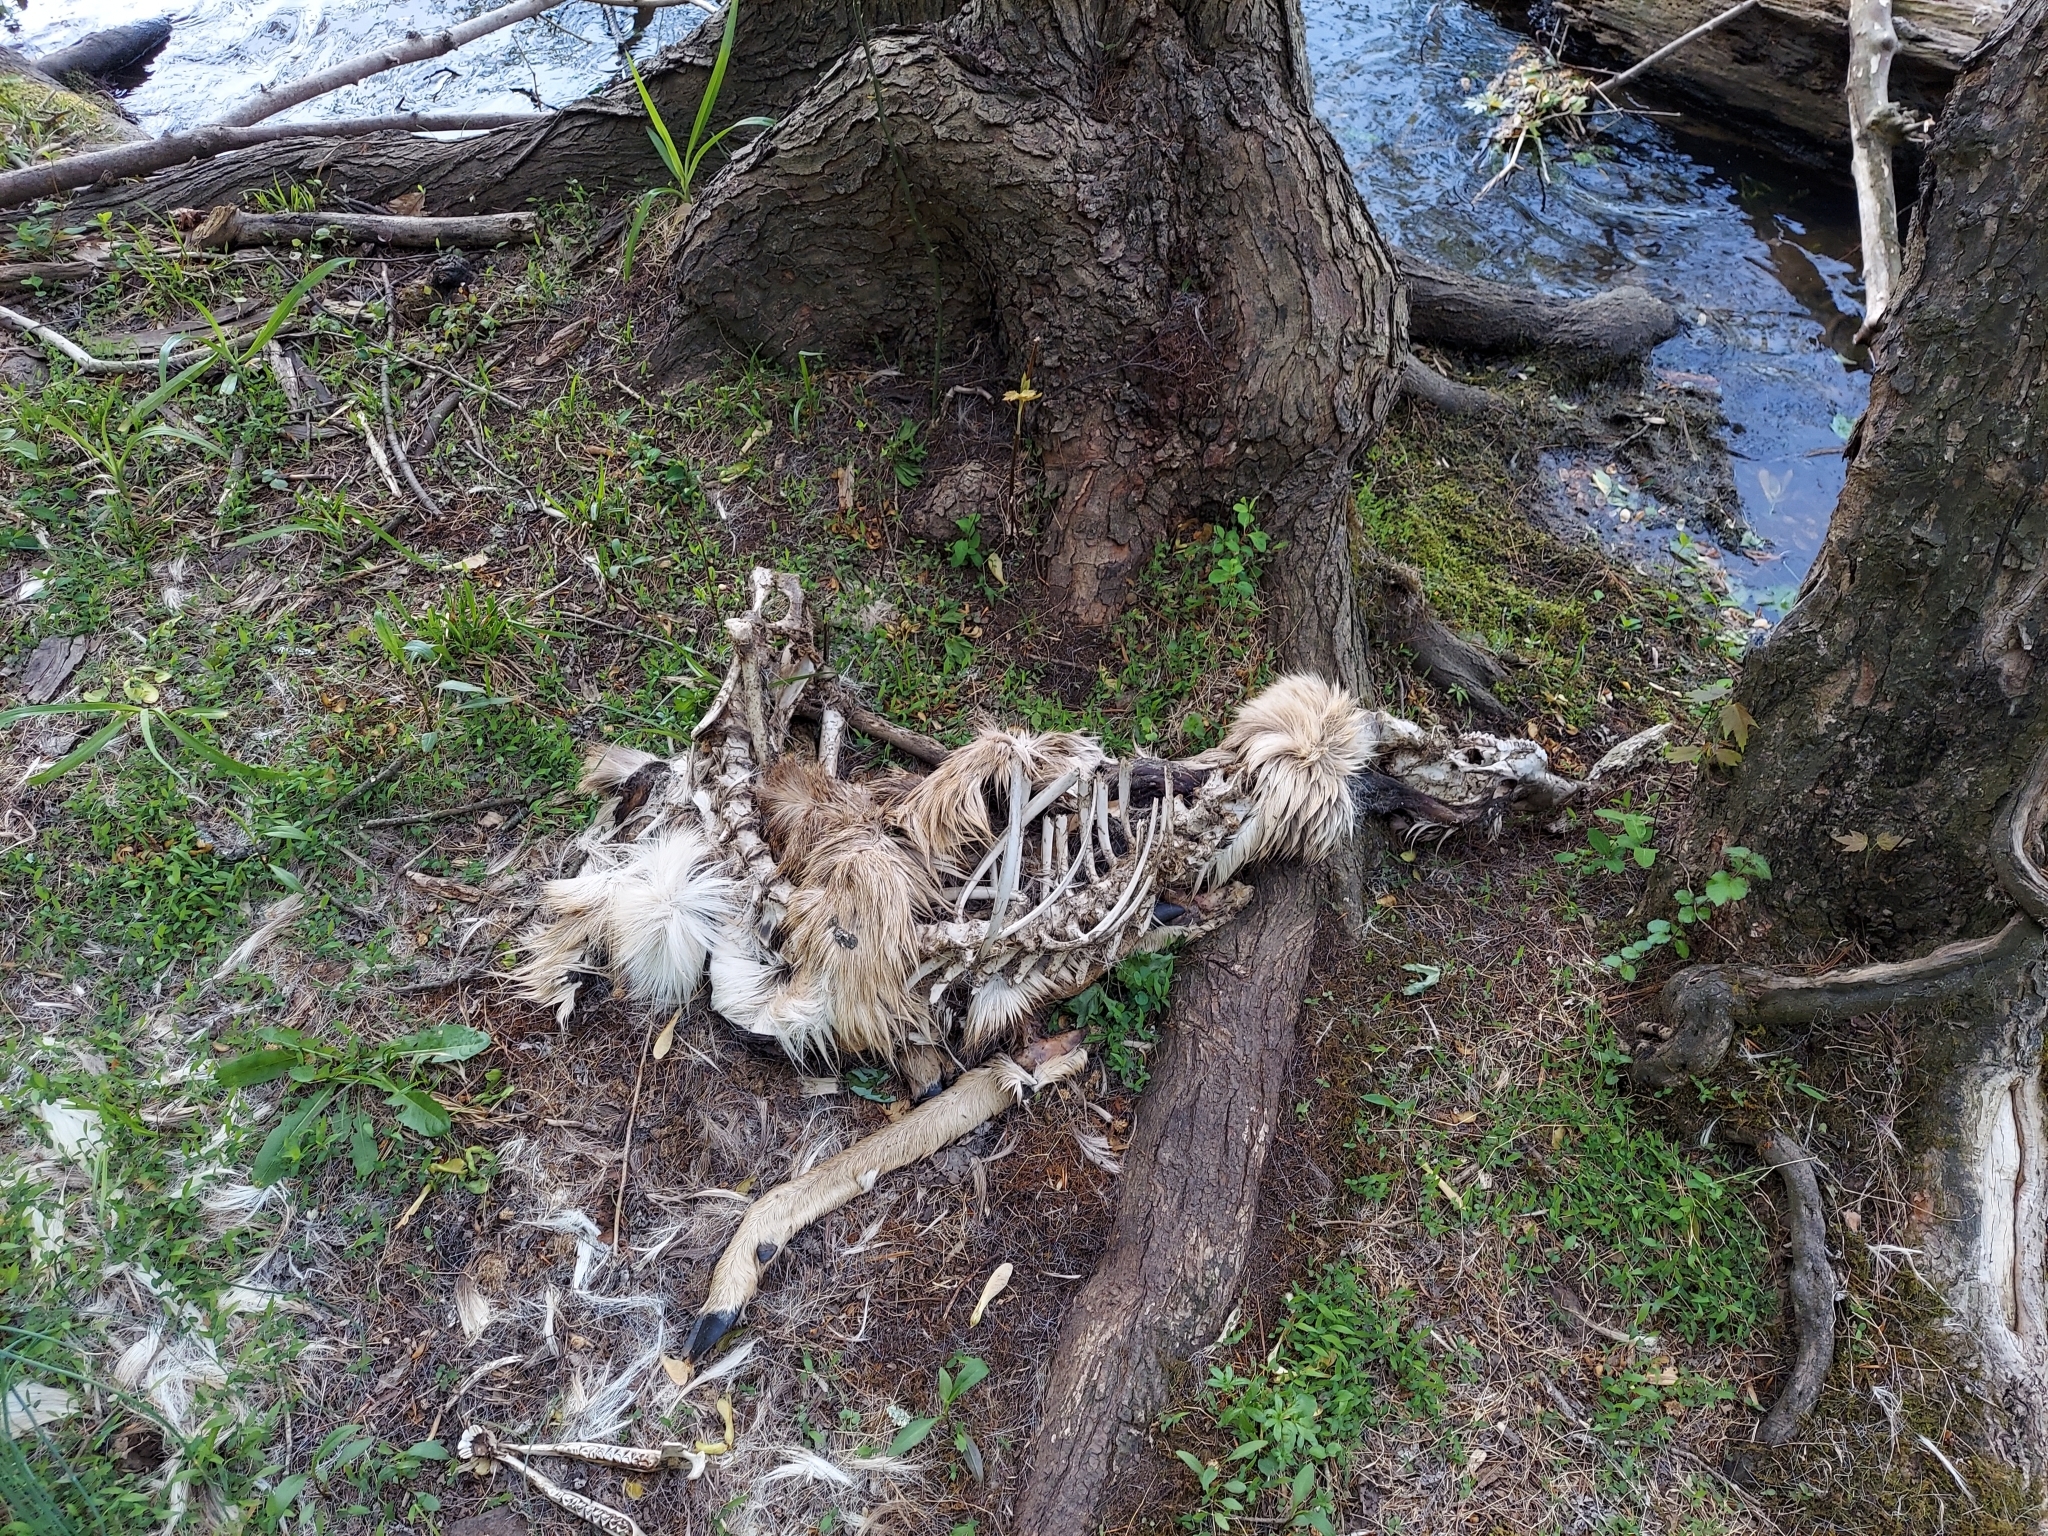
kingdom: Animalia
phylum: Chordata
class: Mammalia
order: Artiodactyla
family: Cervidae
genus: Odocoileus
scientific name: Odocoileus virginianus
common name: White-tailed deer
